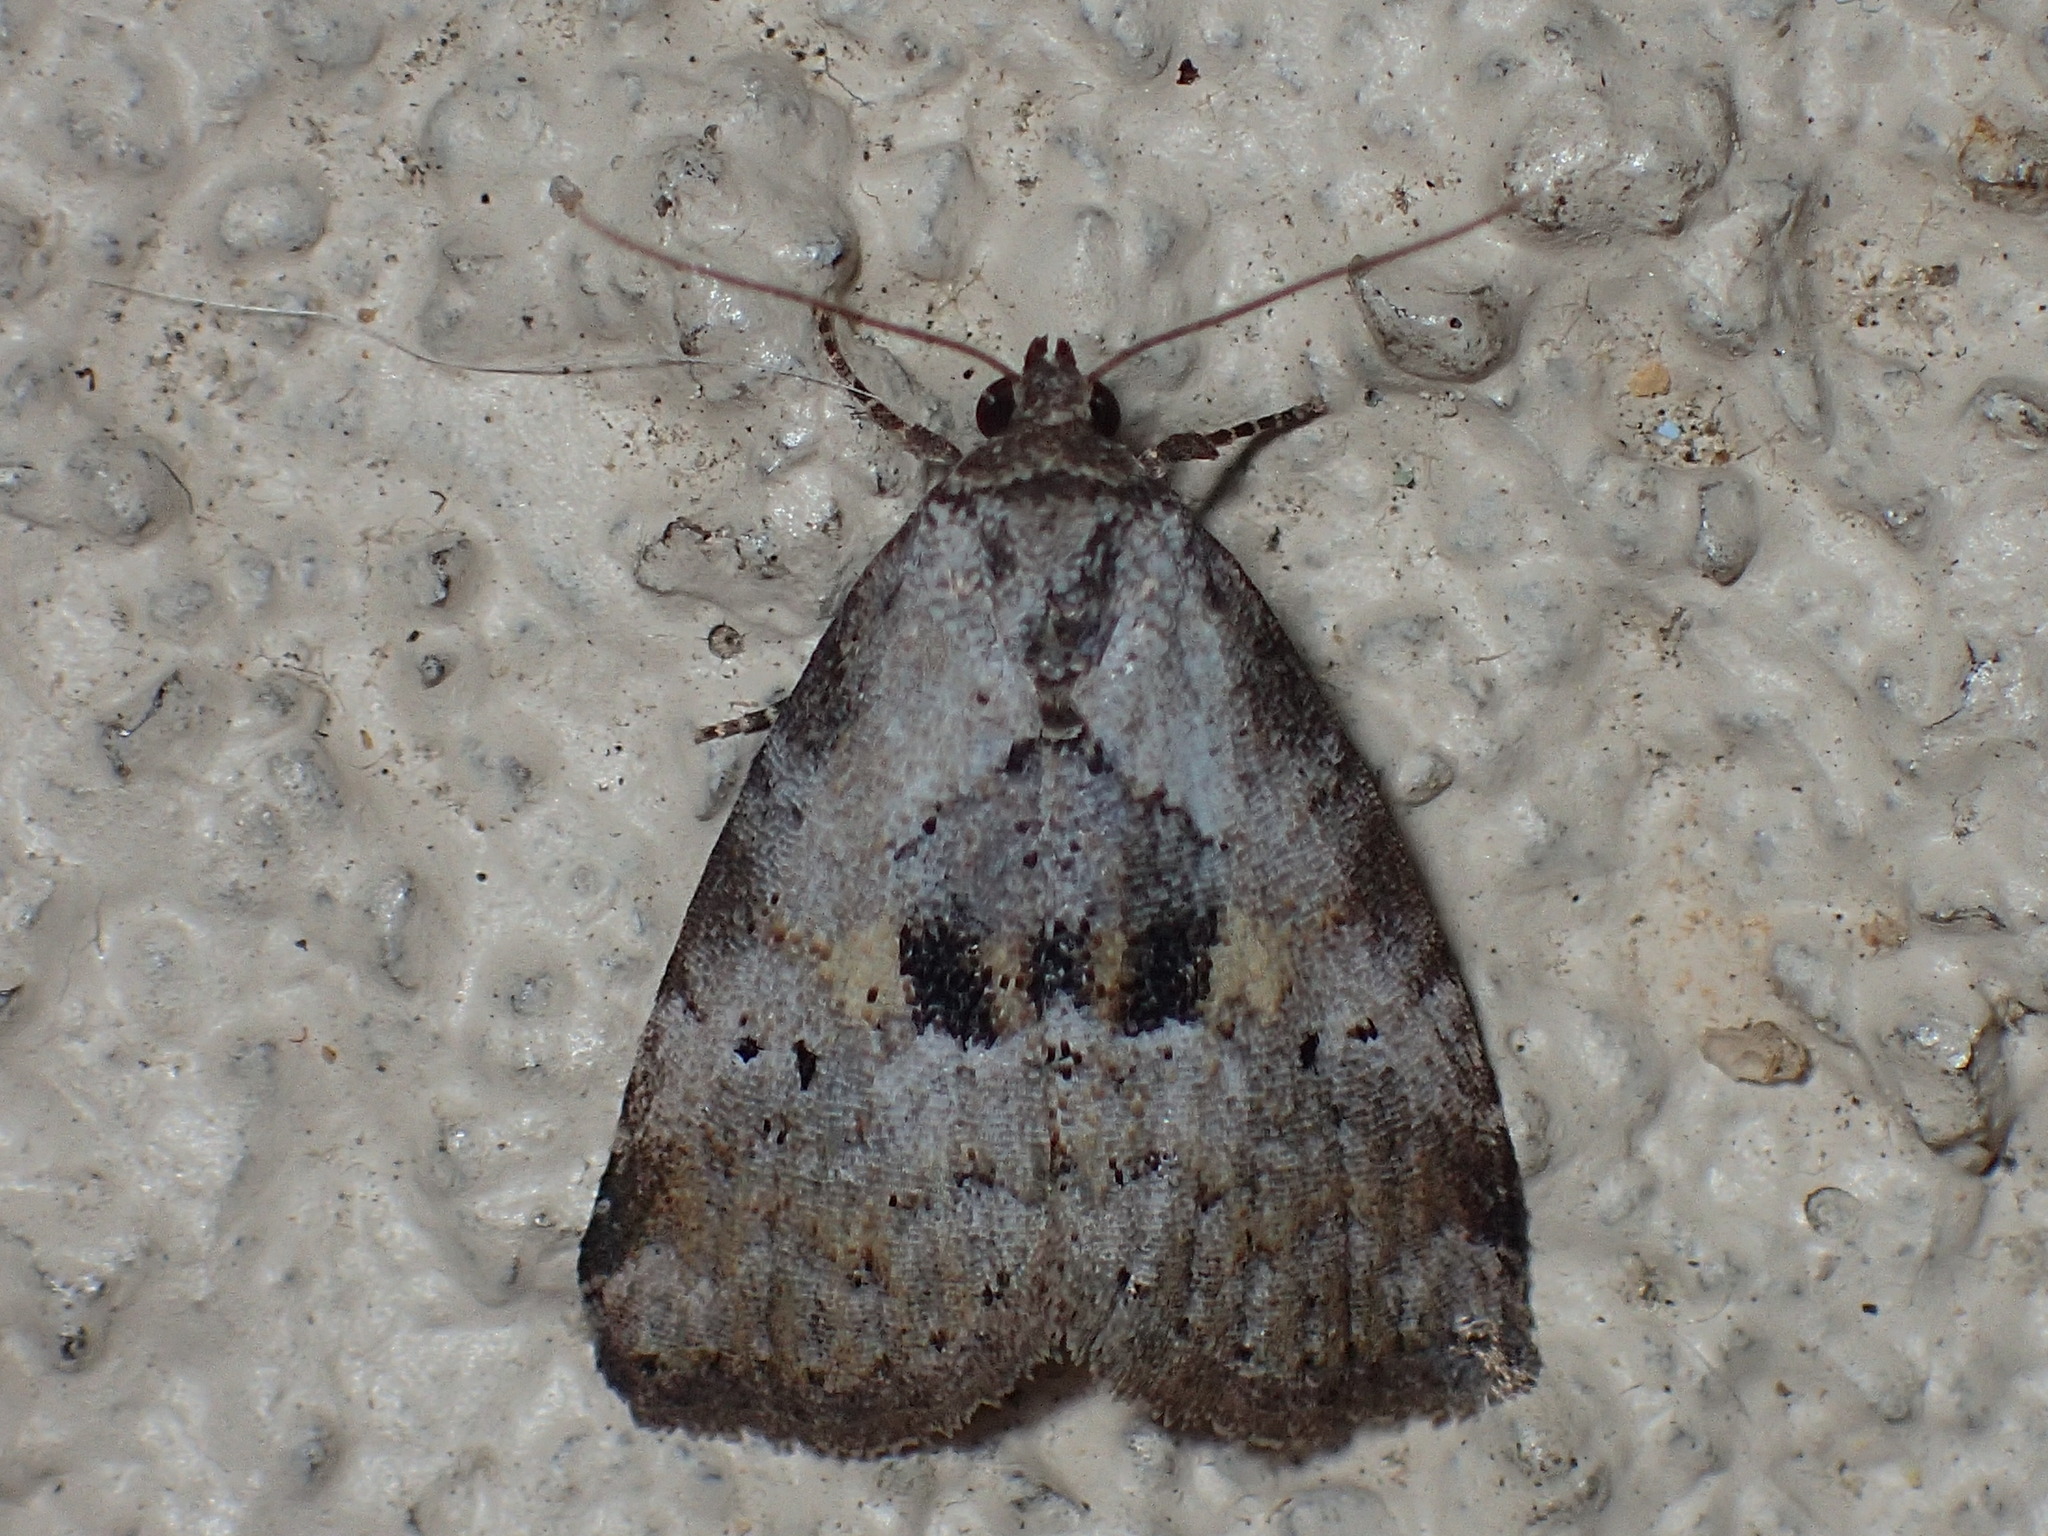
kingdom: Animalia
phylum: Arthropoda
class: Insecta
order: Lepidoptera
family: Erebidae
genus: Hyperstrotia
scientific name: Hyperstrotia secta
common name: Black-patched graylet
